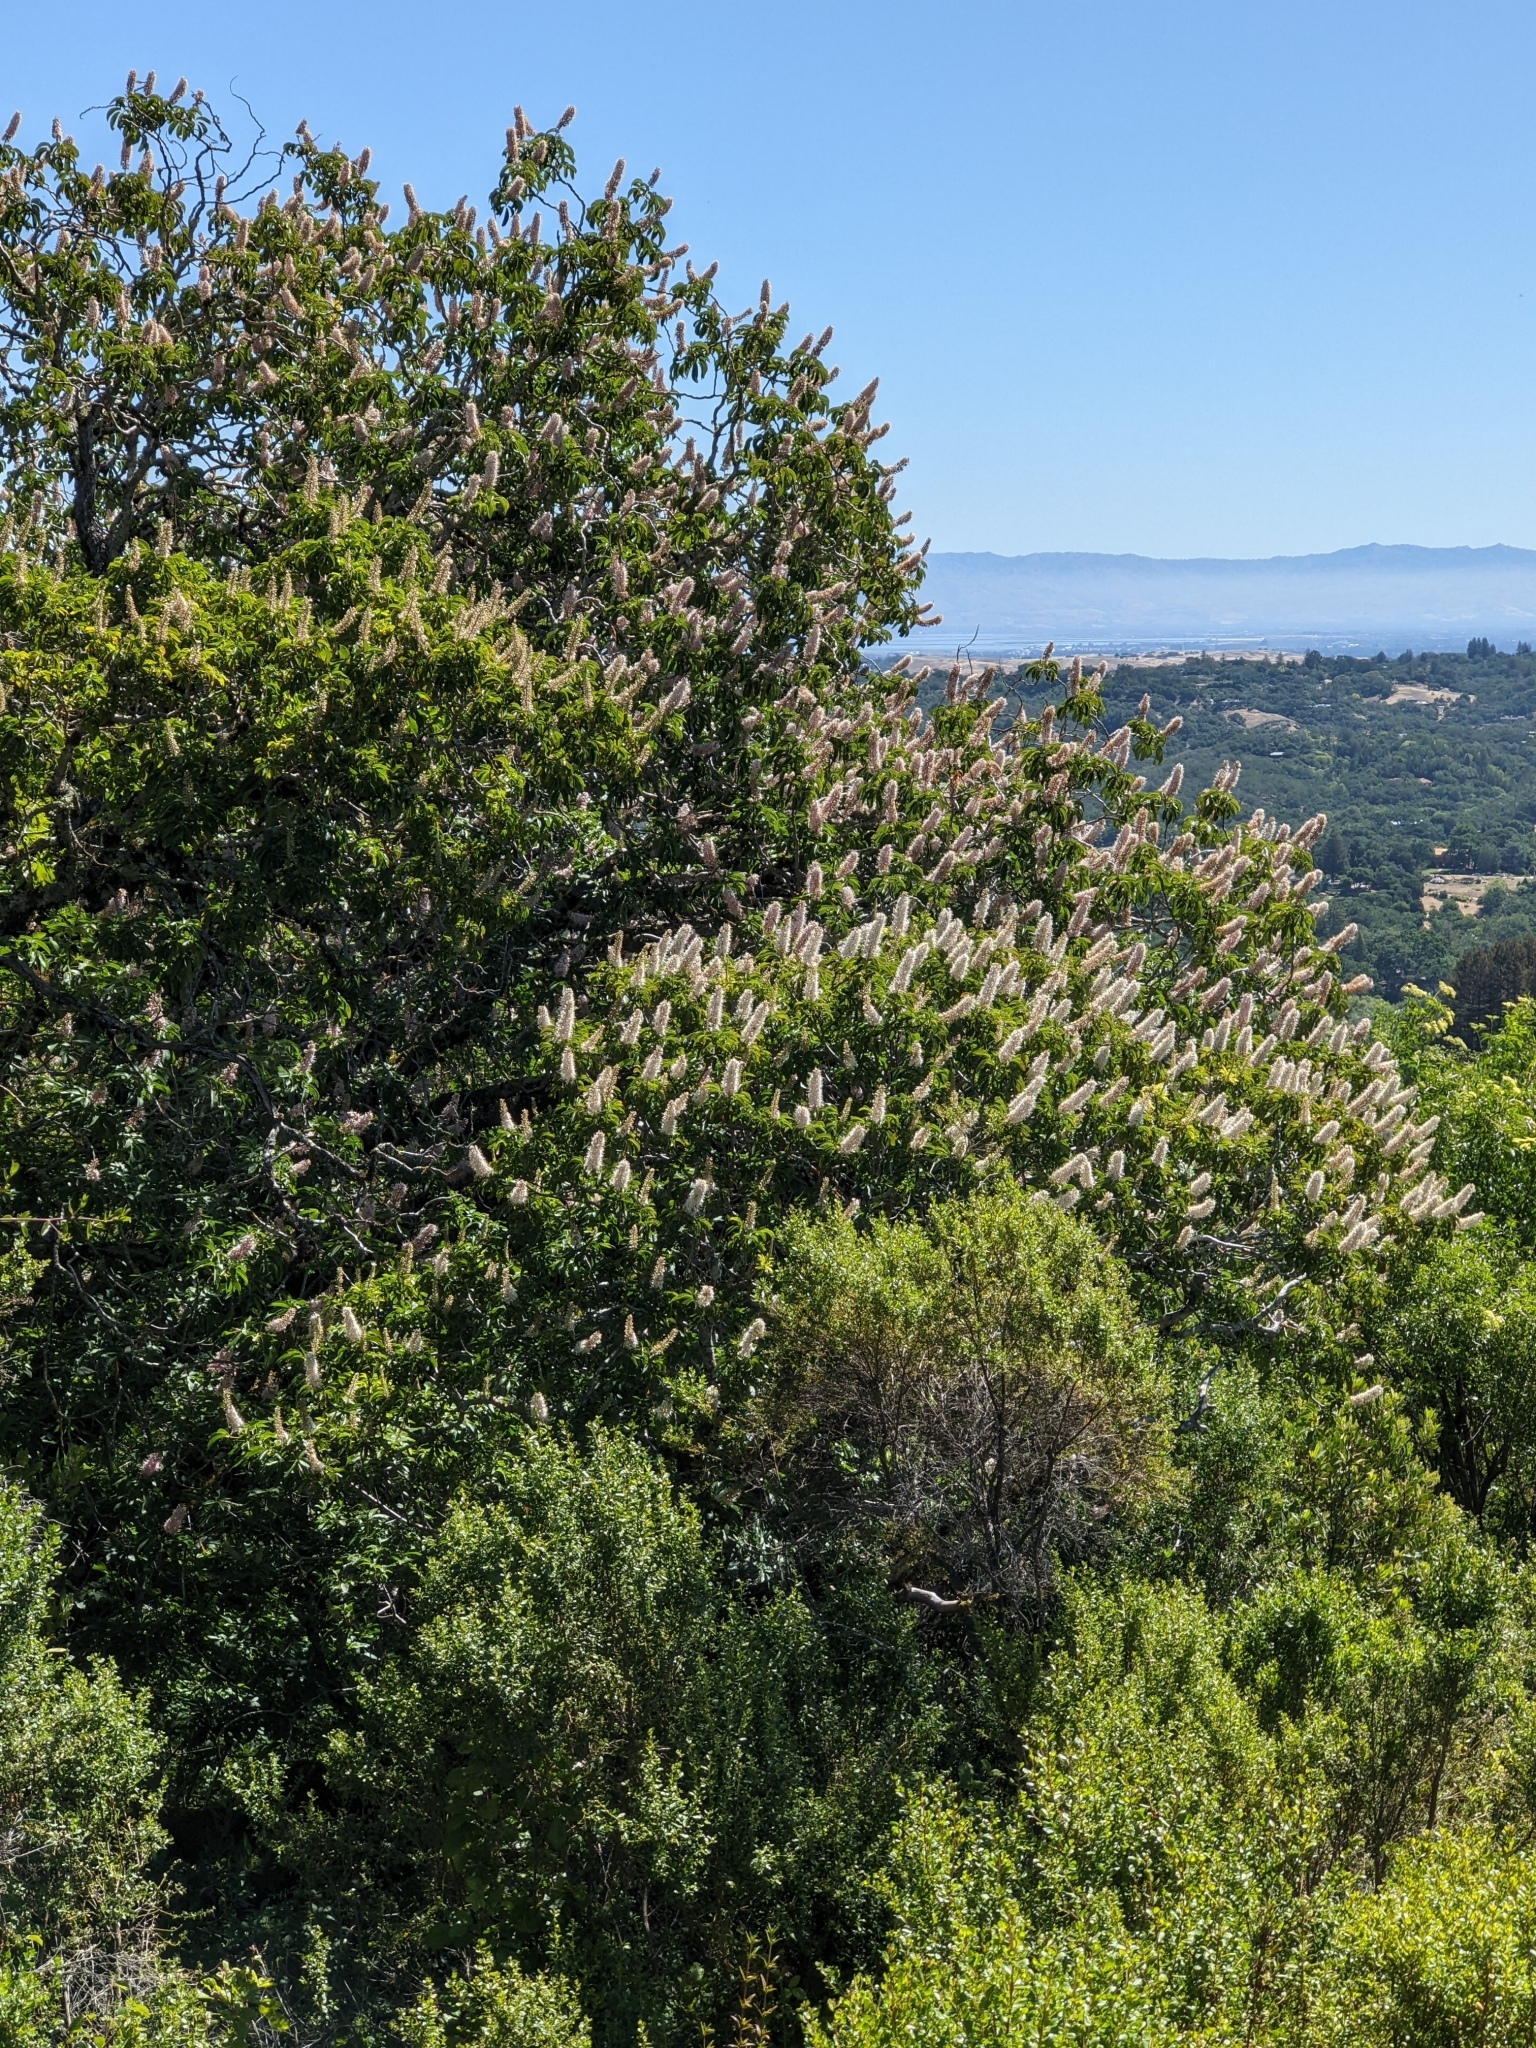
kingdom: Plantae
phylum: Tracheophyta
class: Magnoliopsida
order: Sapindales
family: Sapindaceae
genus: Aesculus
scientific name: Aesculus californica
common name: California buckeye
